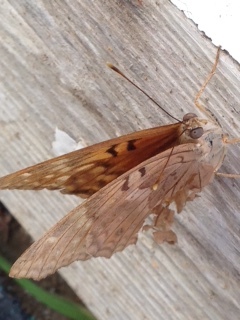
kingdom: Animalia
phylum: Arthropoda
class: Insecta
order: Lepidoptera
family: Nymphalidae
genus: Asterocampa
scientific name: Asterocampa clyton
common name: Tawny emperor
